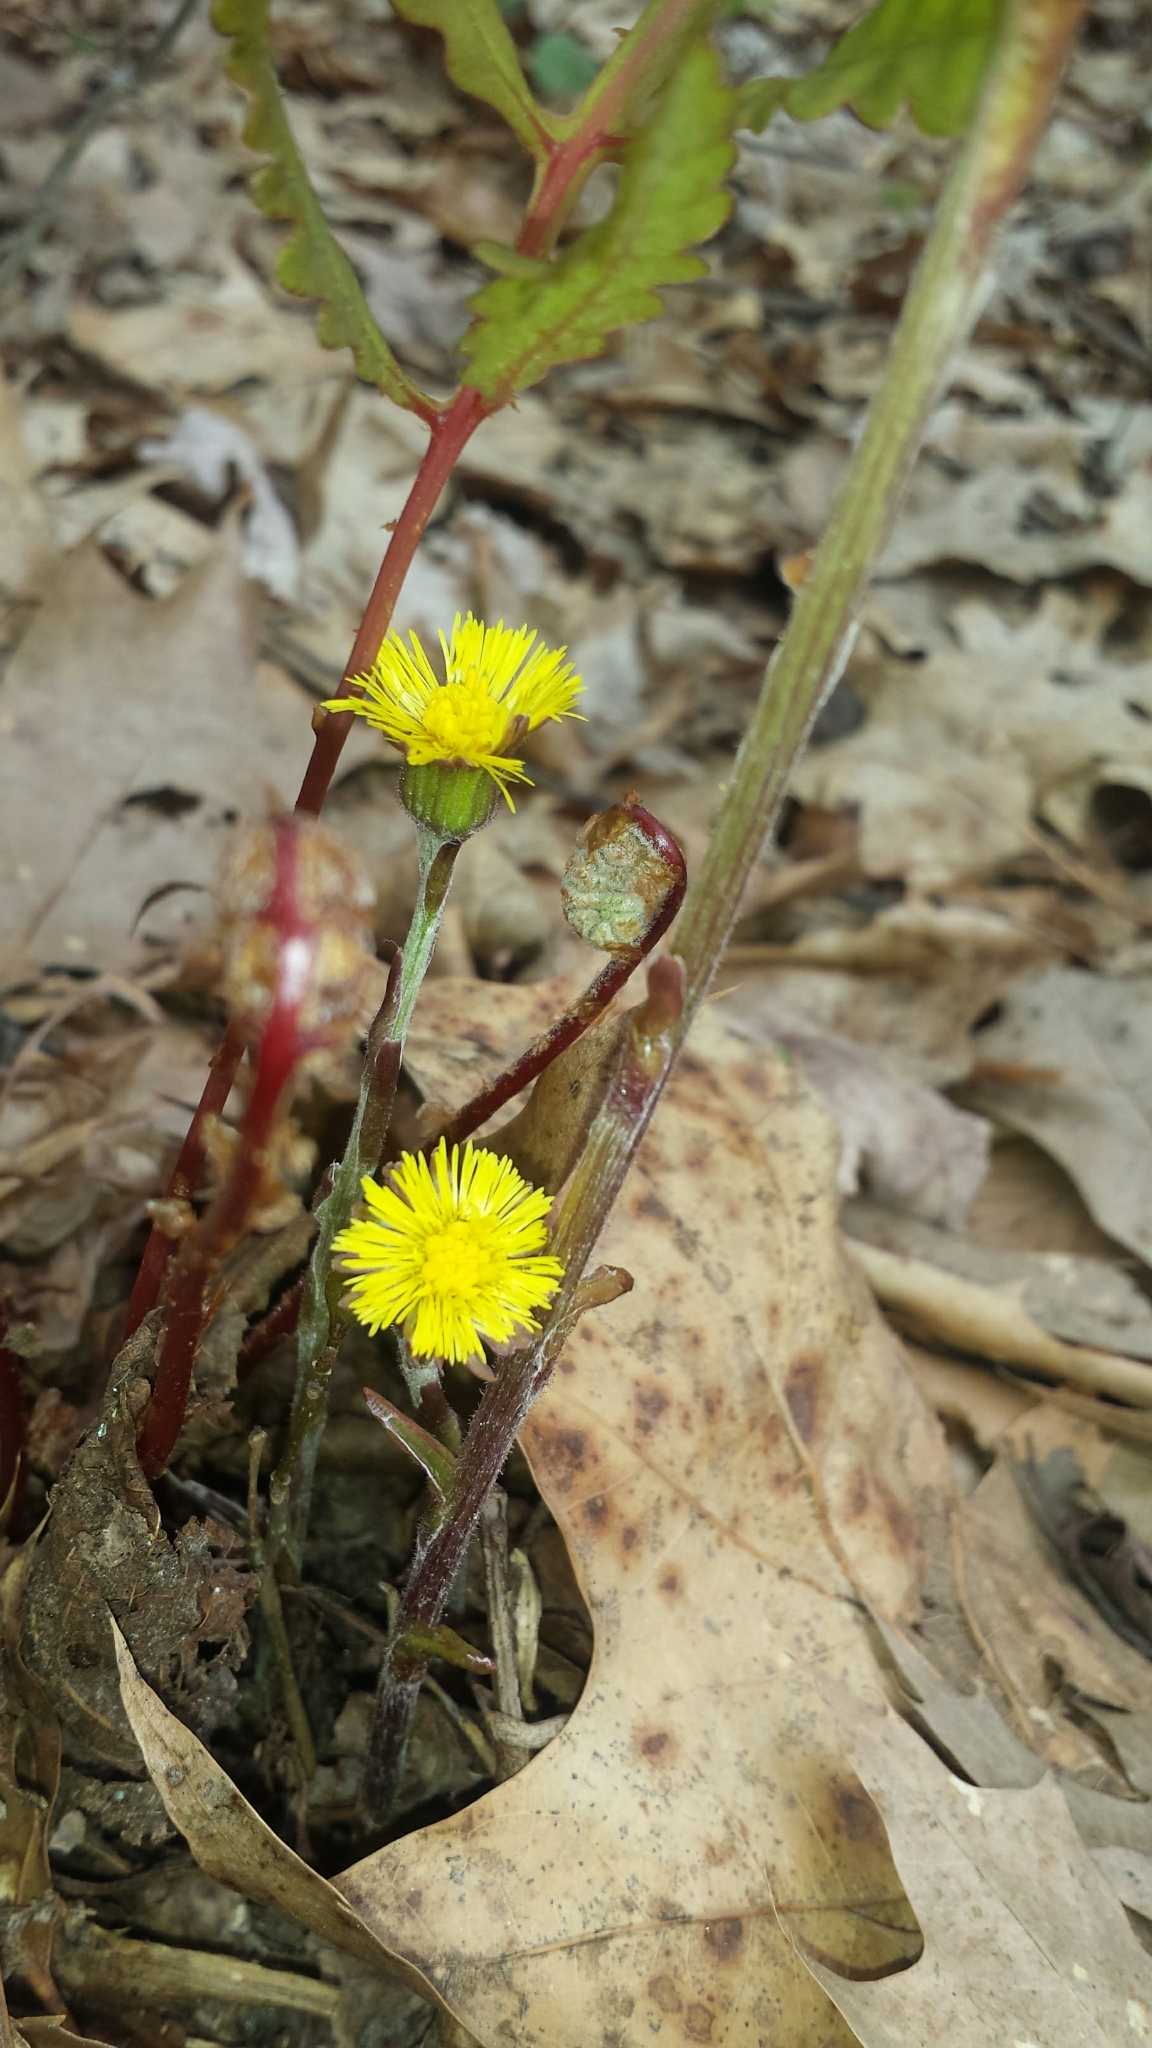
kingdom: Plantae
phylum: Tracheophyta
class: Magnoliopsida
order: Asterales
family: Asteraceae
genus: Tussilago
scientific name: Tussilago farfara
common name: Coltsfoot
